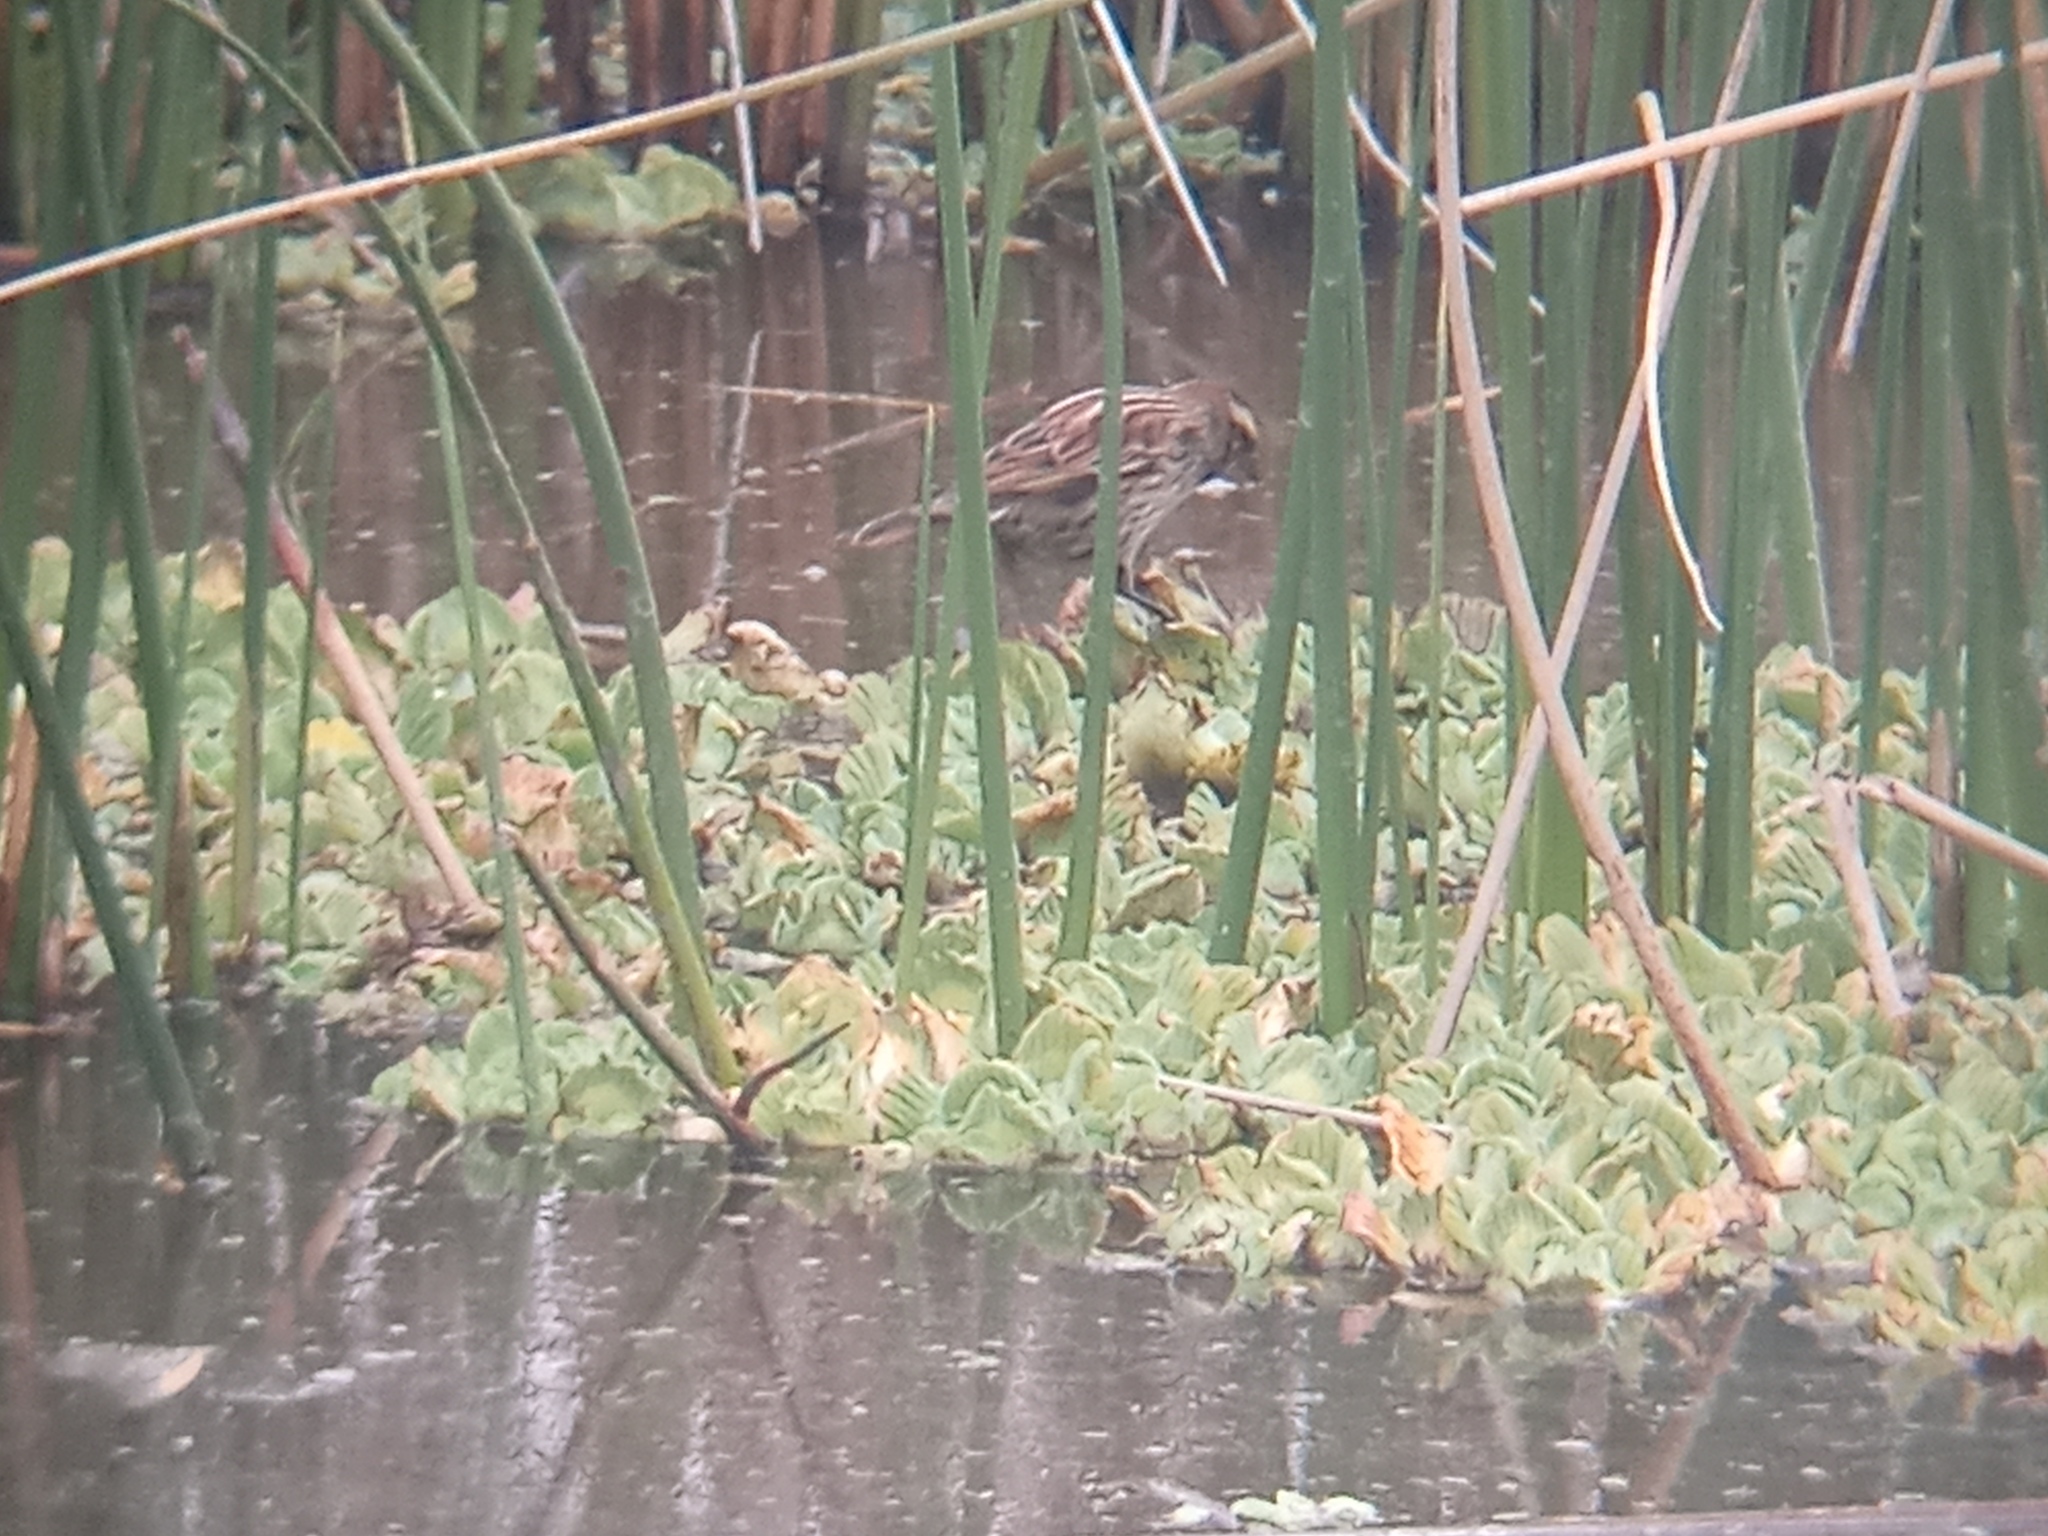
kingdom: Animalia
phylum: Chordata
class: Aves
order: Passeriformes
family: Icteridae
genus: Agelasticus
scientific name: Agelasticus thilius
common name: Yellow-winged blackbird
